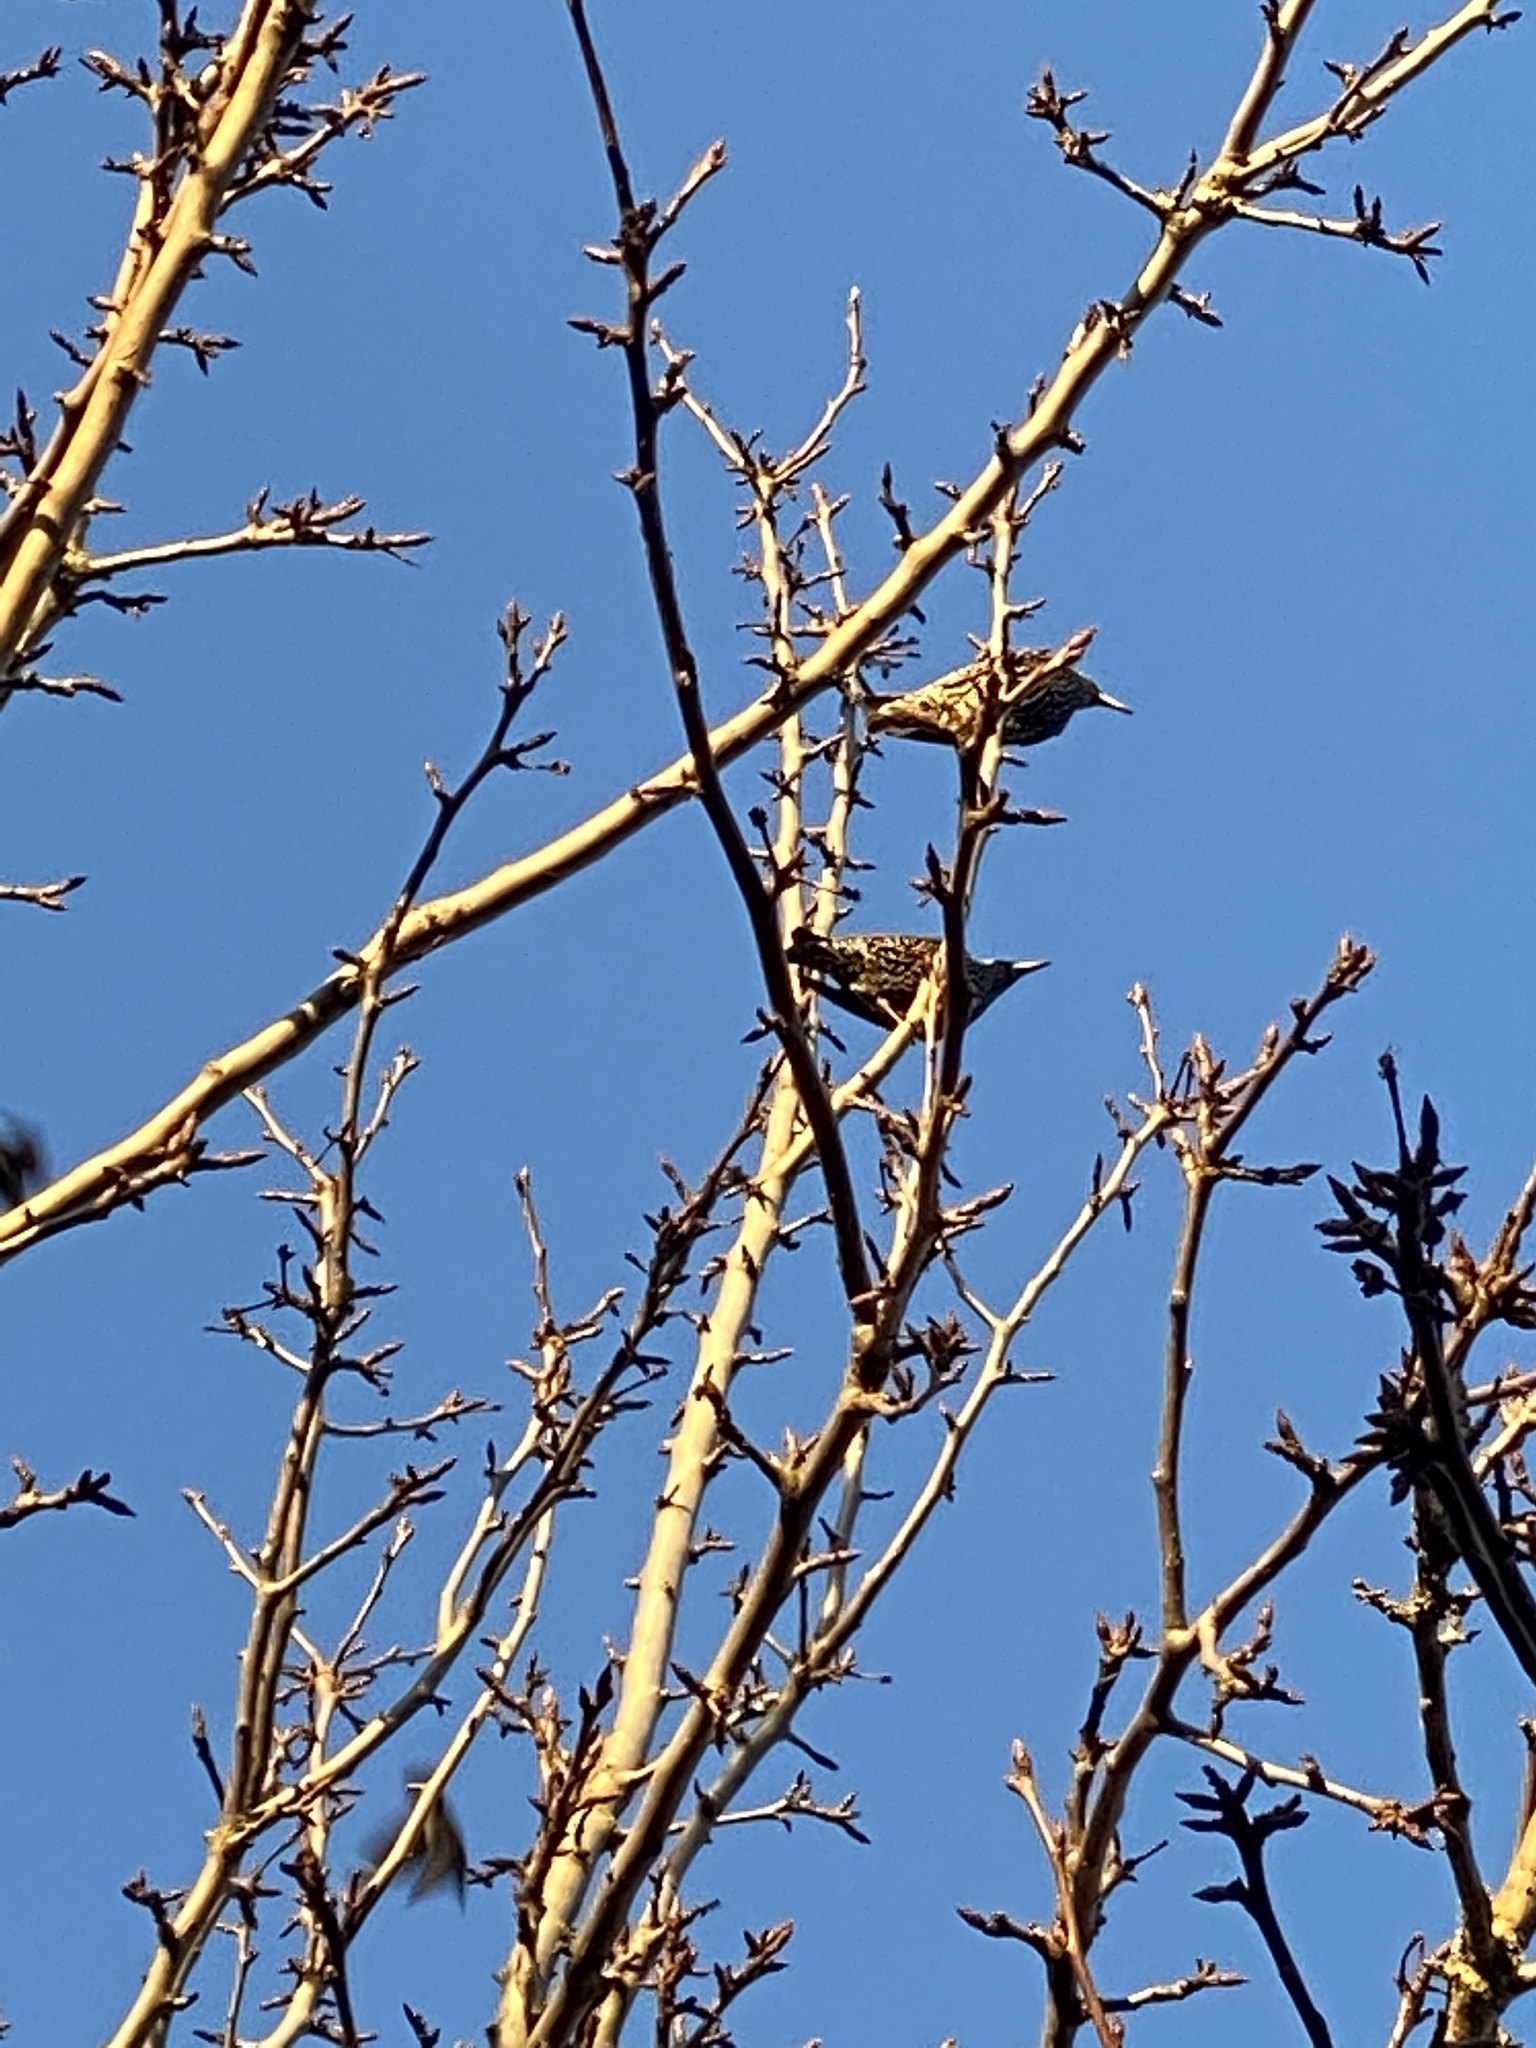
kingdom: Animalia
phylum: Chordata
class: Aves
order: Passeriformes
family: Sturnidae
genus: Sturnus
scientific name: Sturnus vulgaris
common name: Common starling
